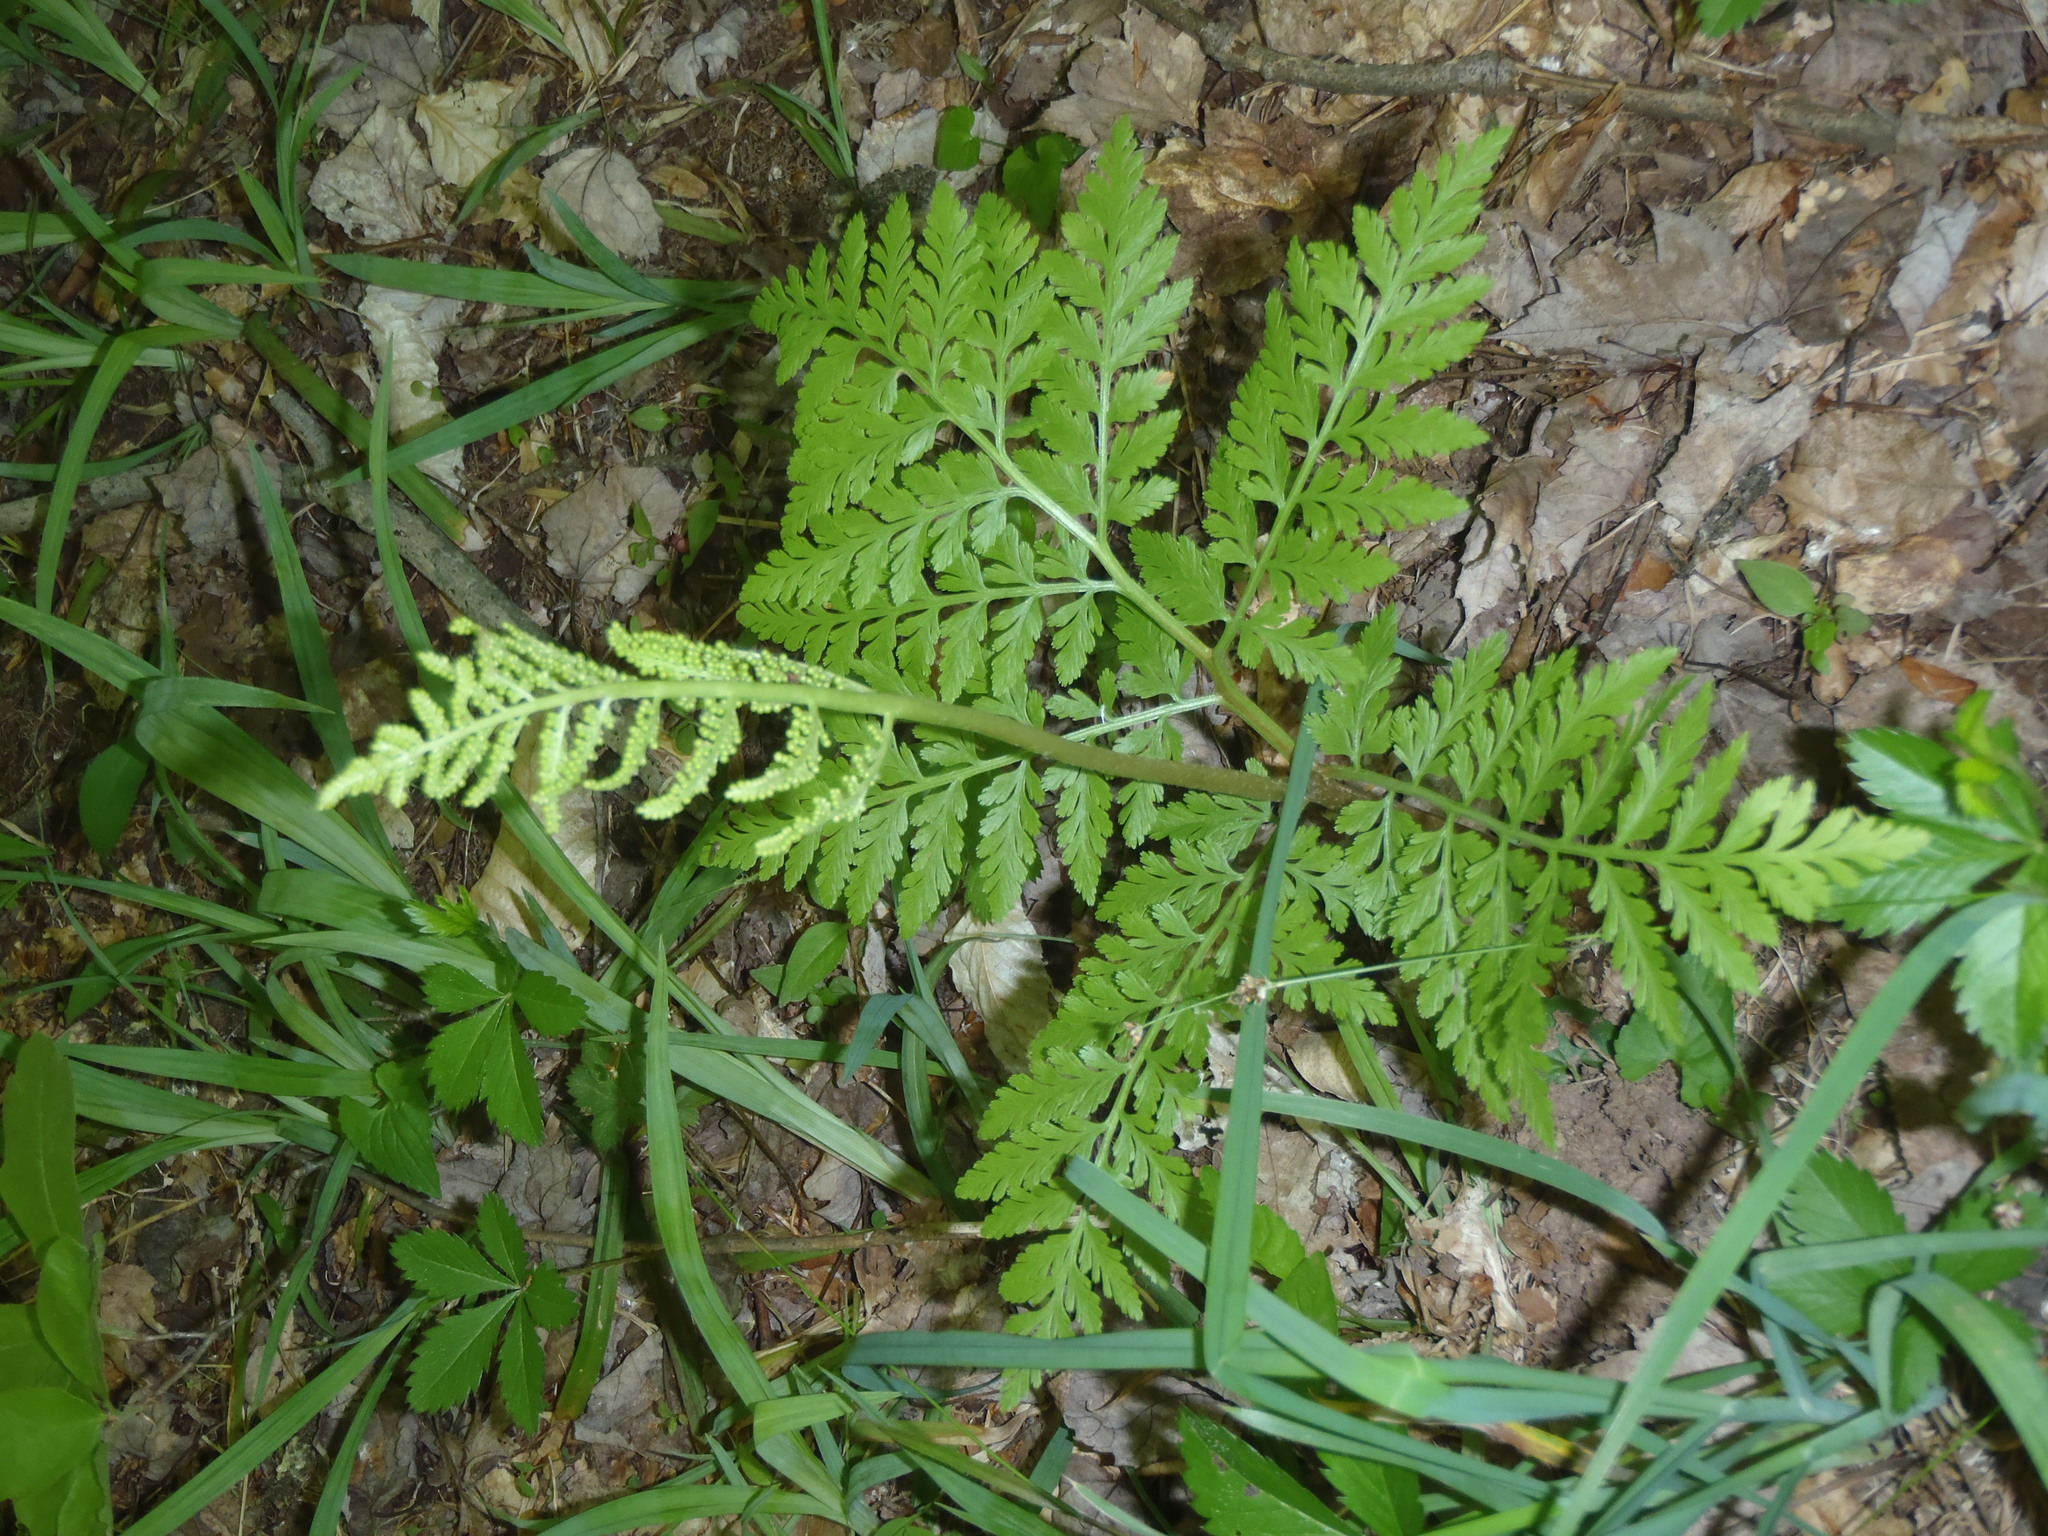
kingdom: Plantae
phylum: Tracheophyta
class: Polypodiopsida
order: Ophioglossales
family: Ophioglossaceae
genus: Botrypus
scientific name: Botrypus virginianus
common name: Common grapefern
